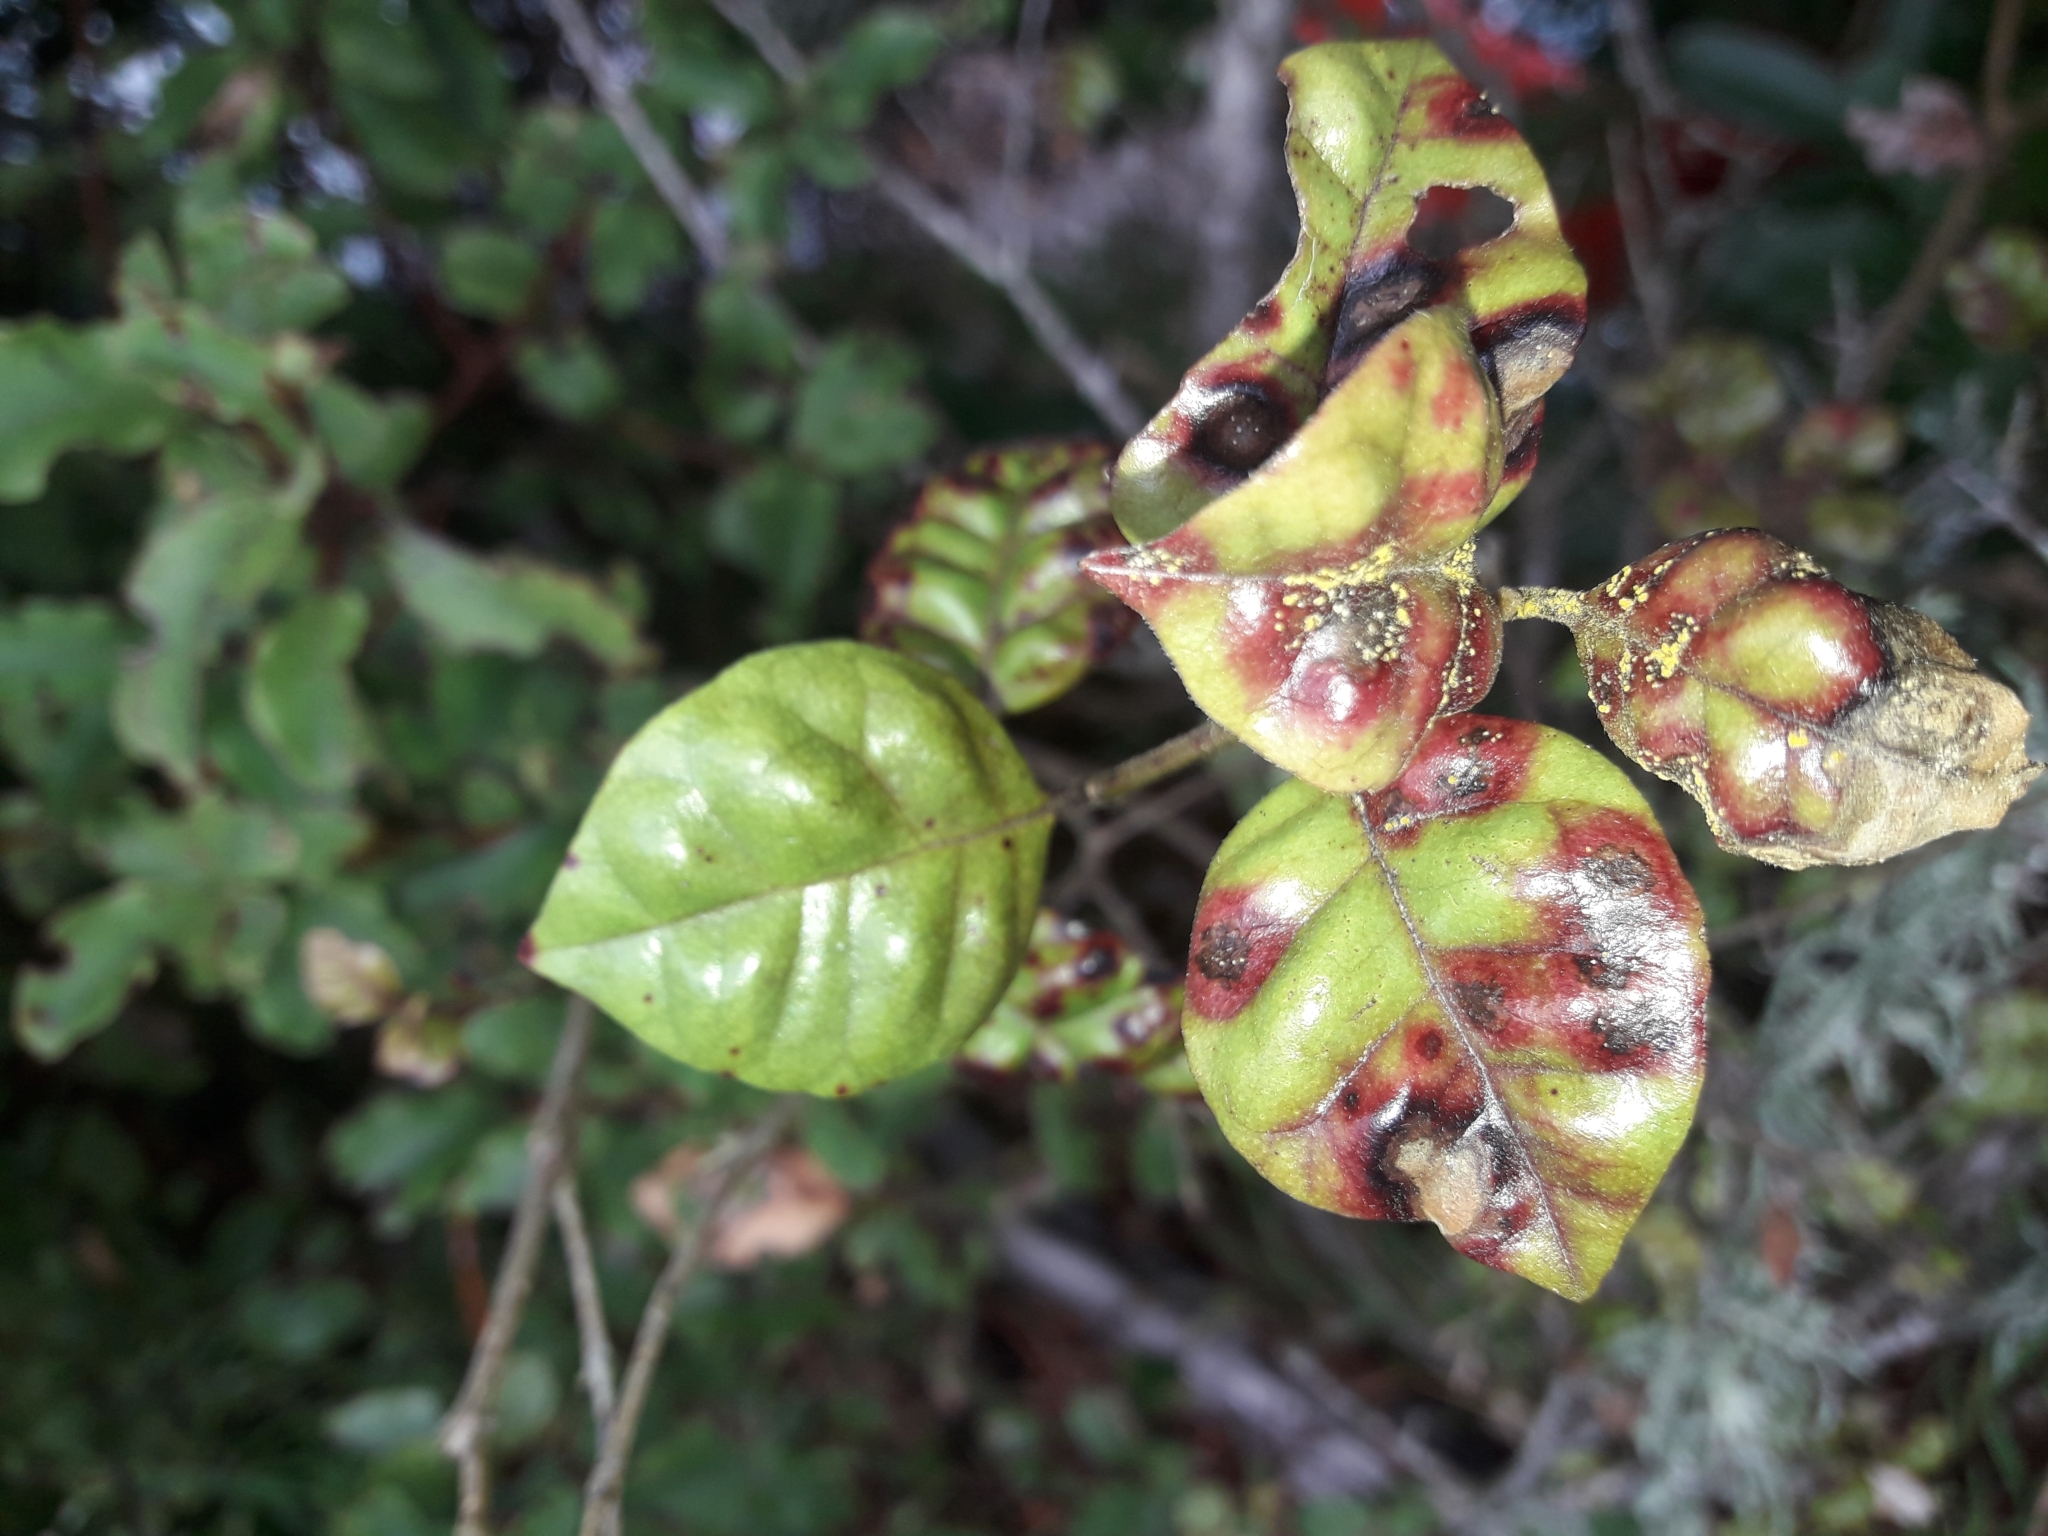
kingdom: Fungi
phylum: Basidiomycota
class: Pucciniomycetes
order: Pucciniales
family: Sphaerophragmiaceae
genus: Austropuccinia
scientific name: Austropuccinia psidii
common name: Myrtle rust
